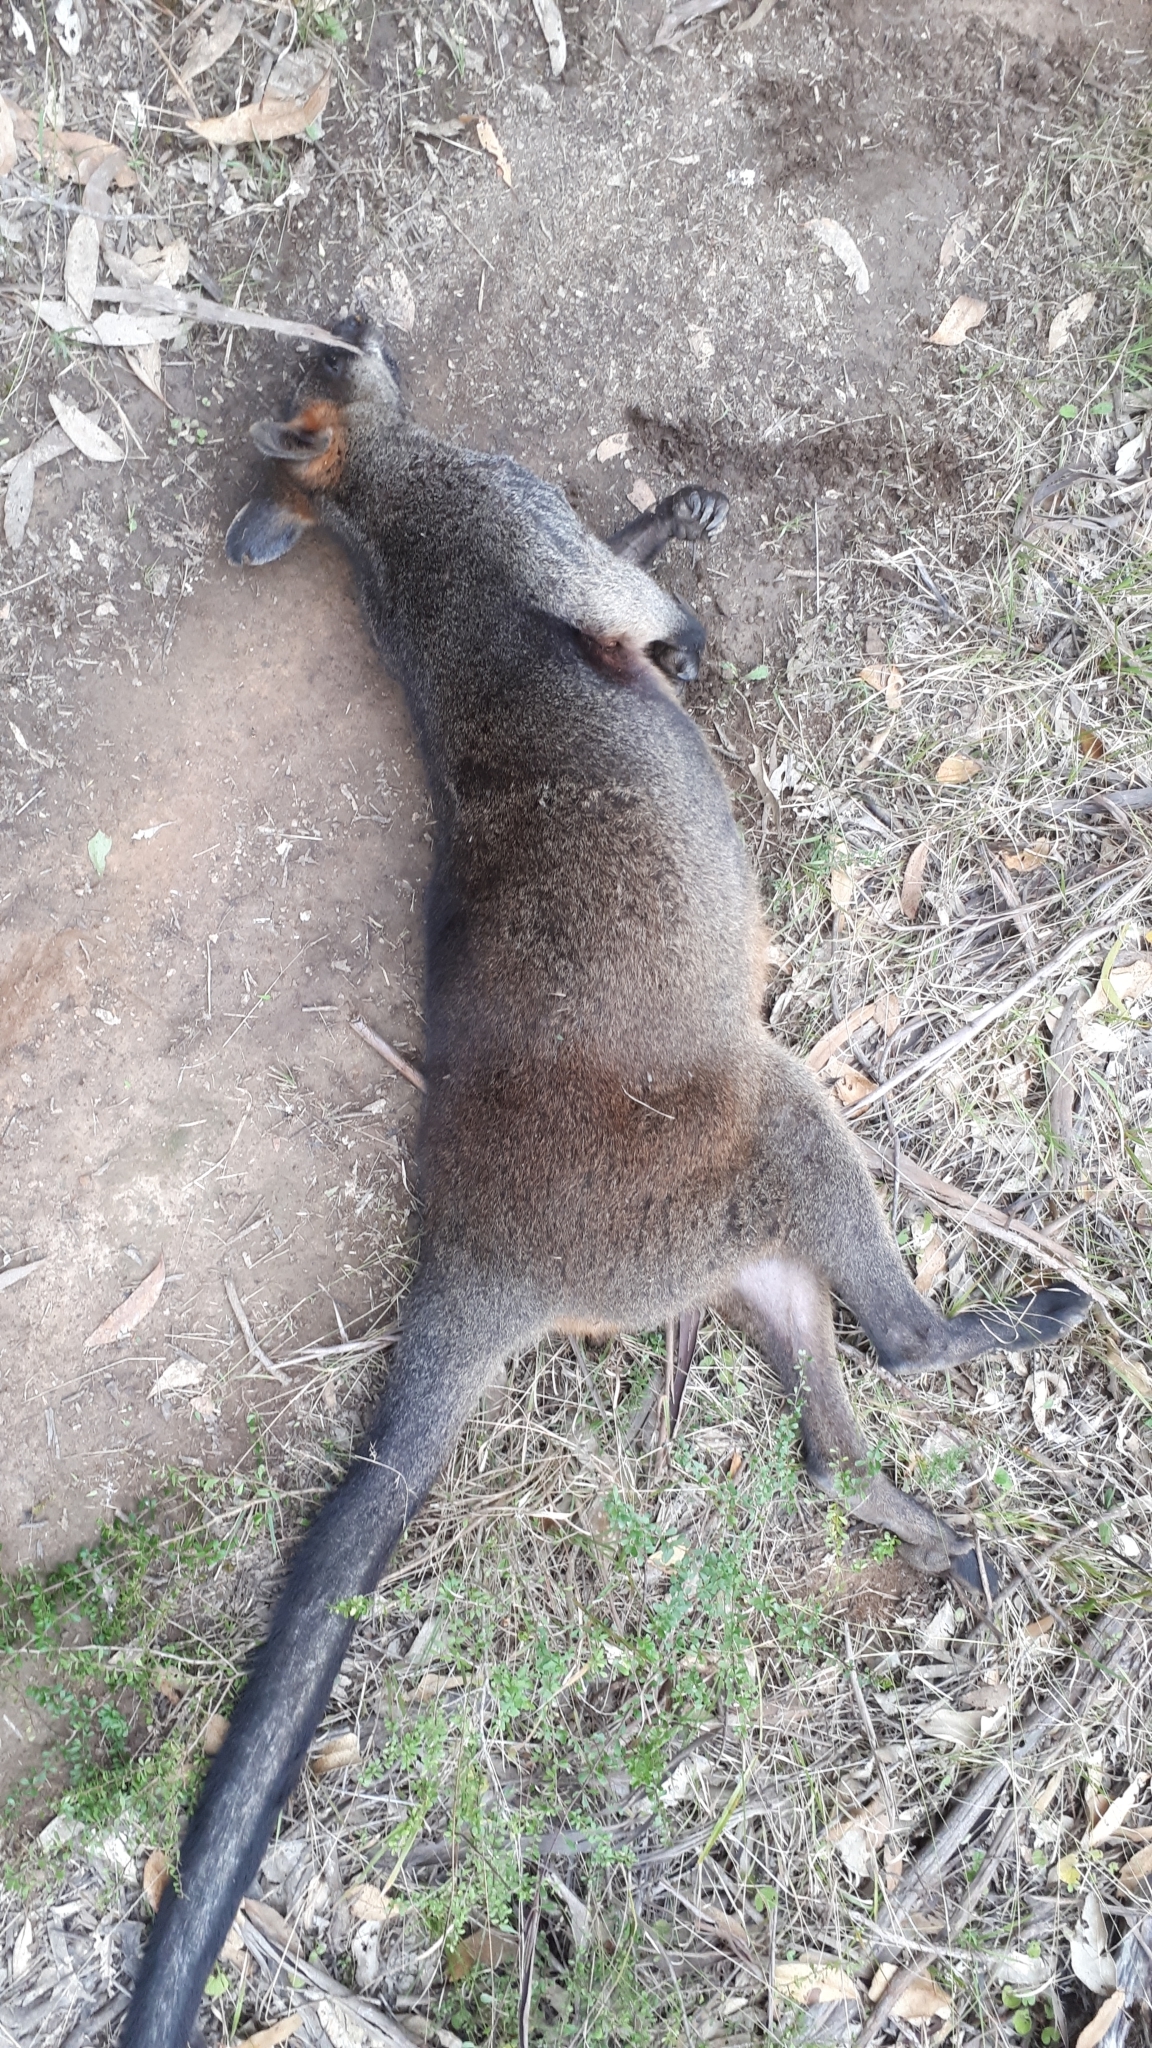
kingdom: Animalia
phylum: Chordata
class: Mammalia
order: Diprotodontia
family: Macropodidae
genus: Wallabia
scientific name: Wallabia bicolor
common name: Swamp wallaby
